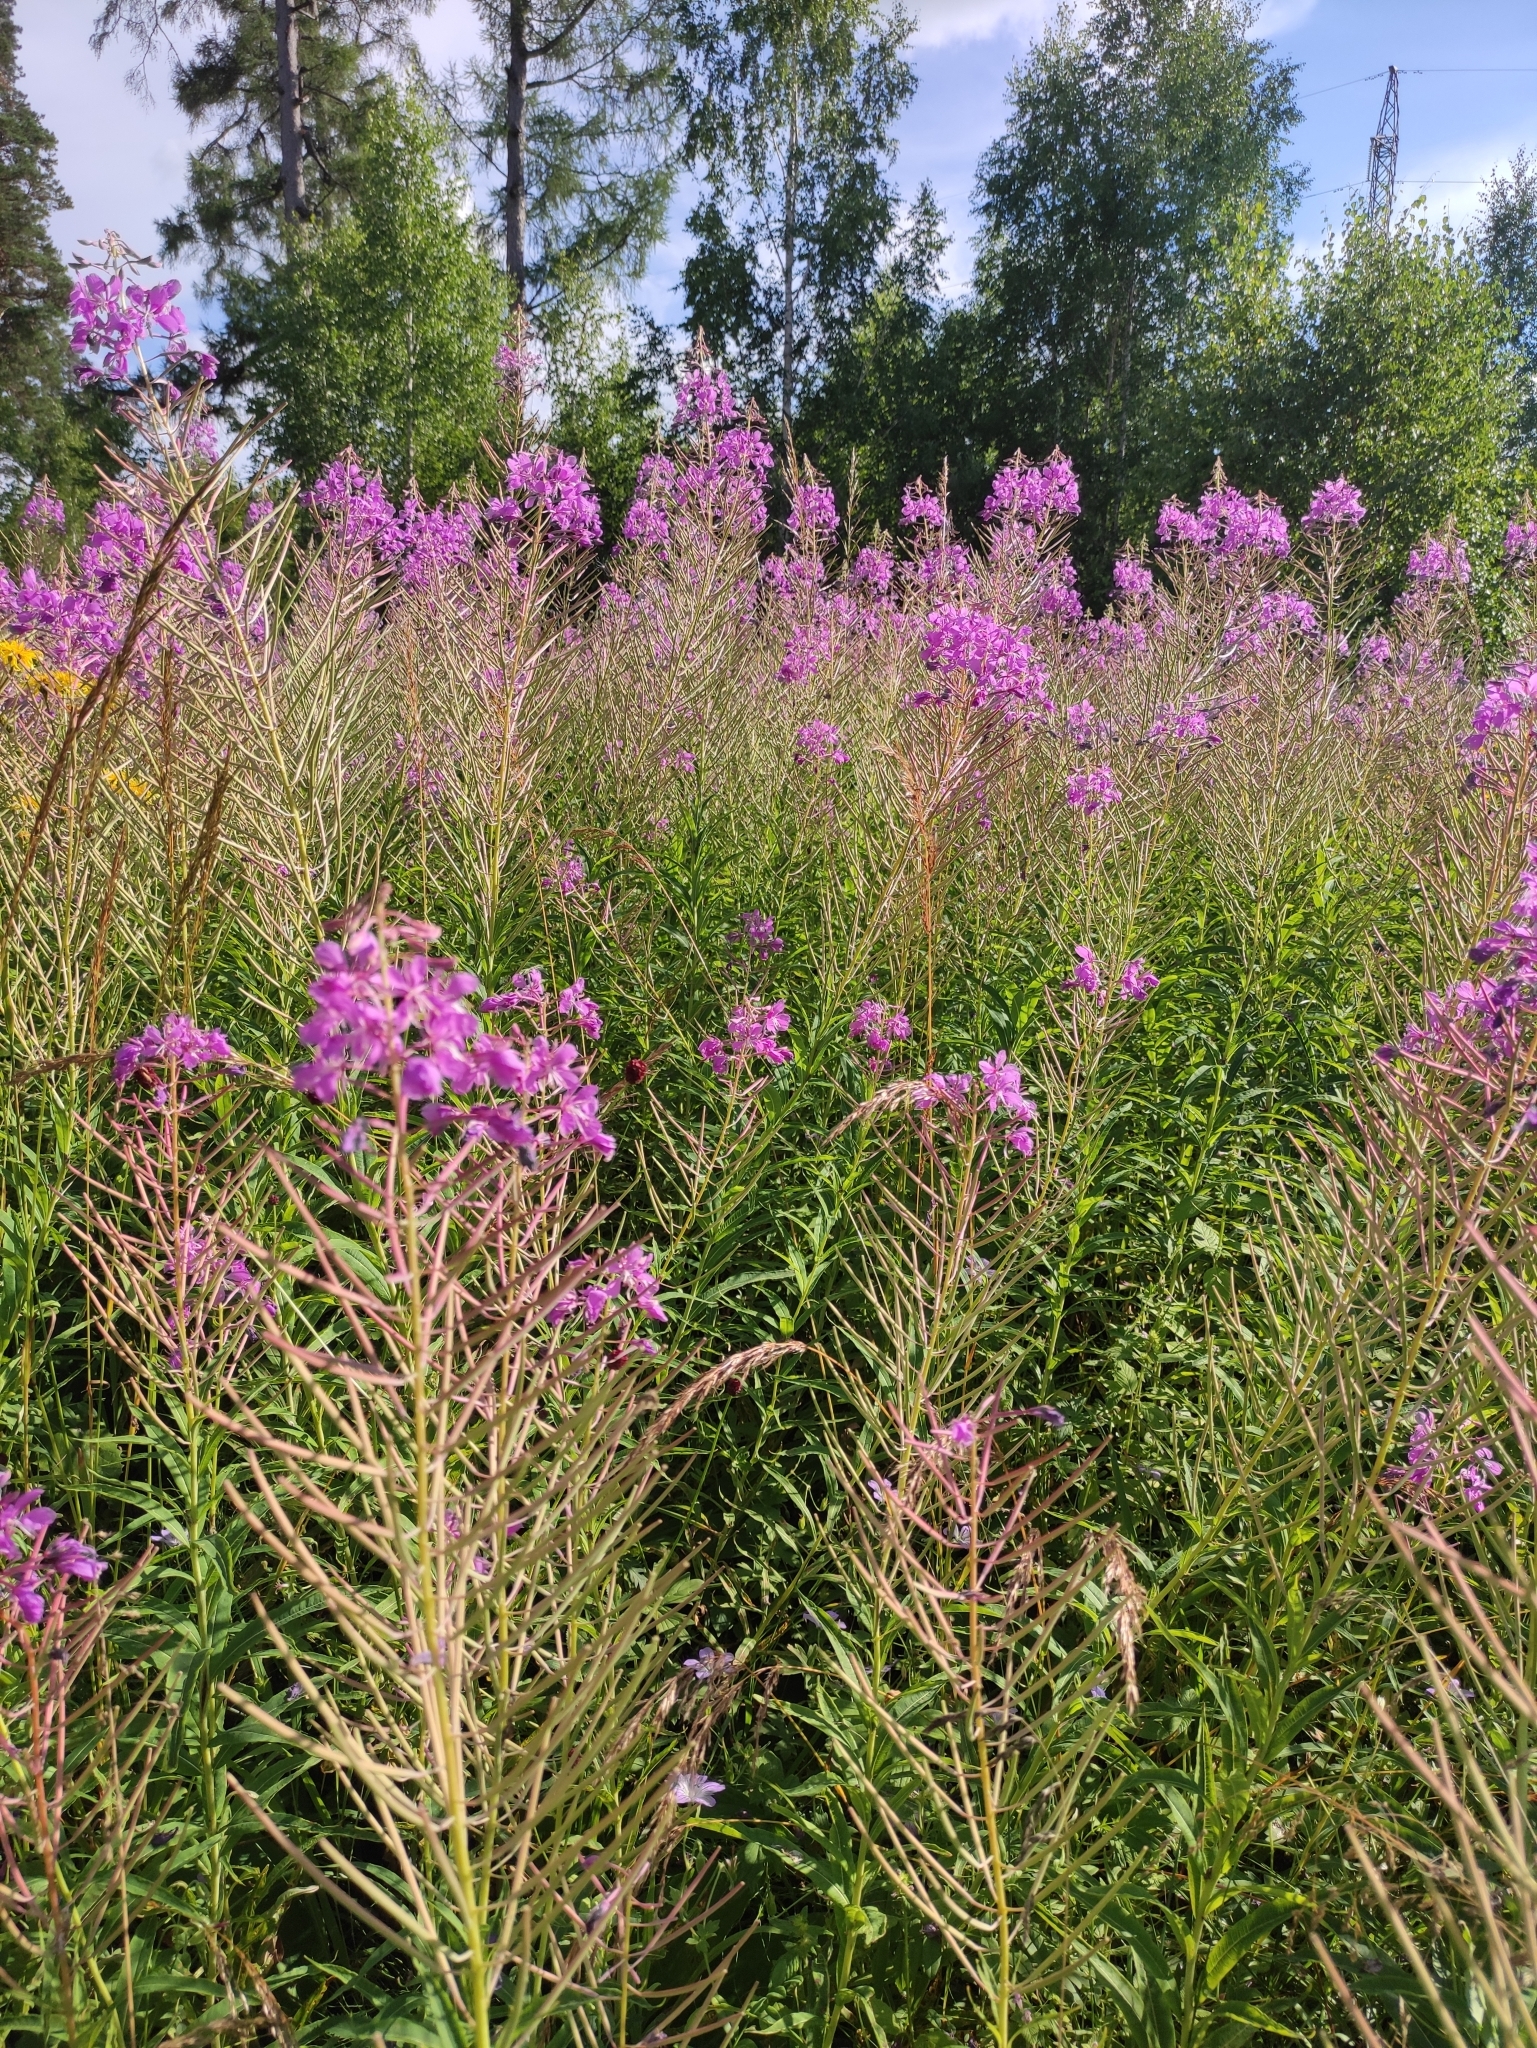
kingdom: Plantae
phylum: Tracheophyta
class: Magnoliopsida
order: Myrtales
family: Onagraceae
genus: Chamaenerion
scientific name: Chamaenerion angustifolium
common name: Fireweed
